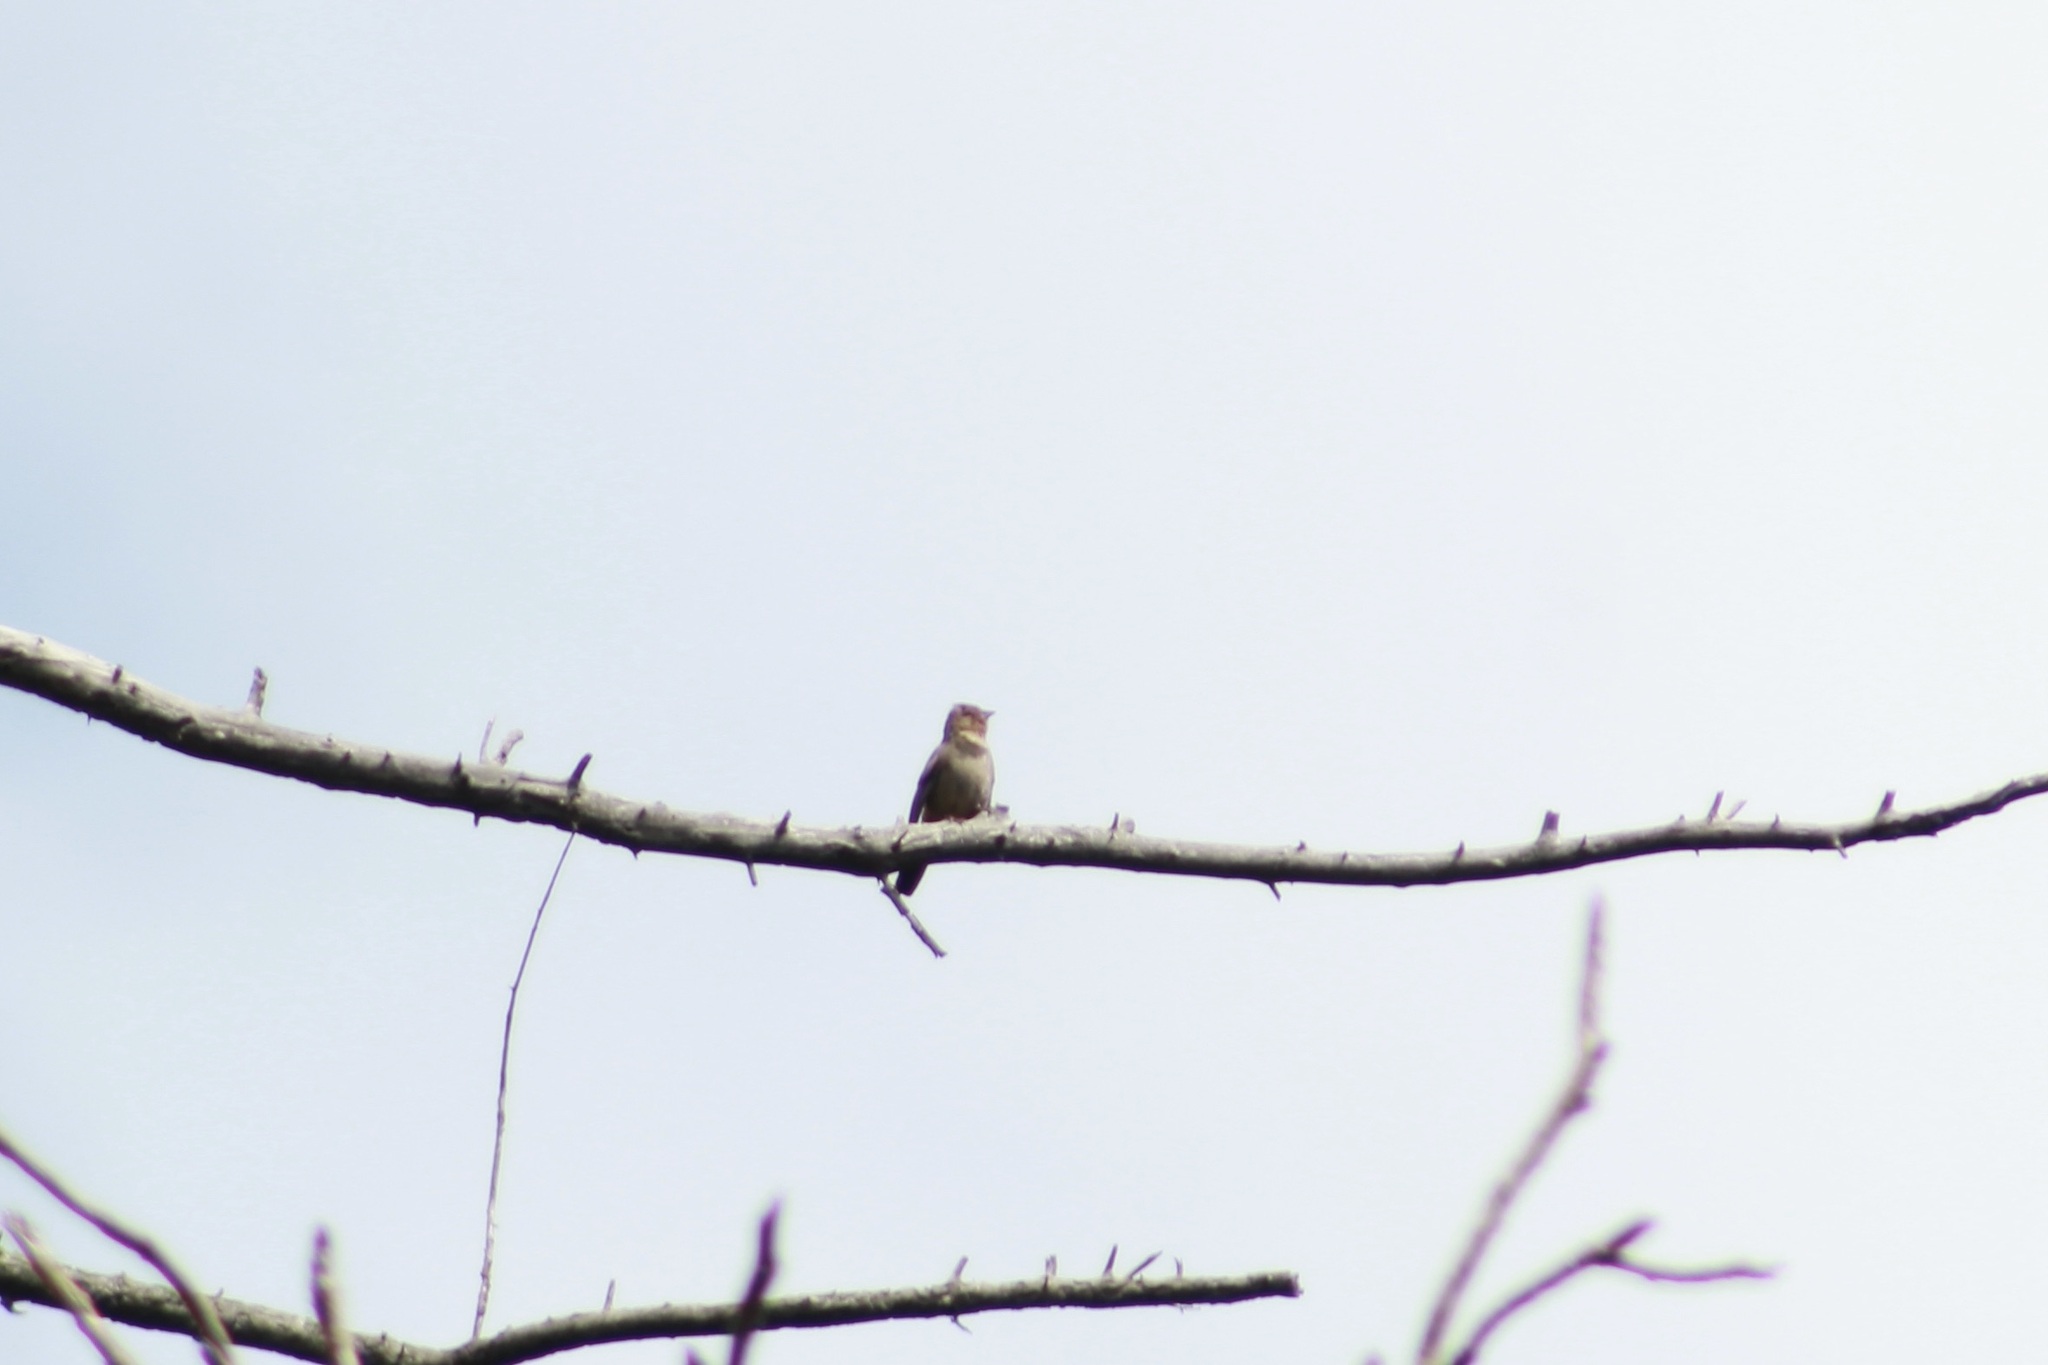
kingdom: Animalia
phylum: Chordata
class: Aves
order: Passeriformes
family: Passerellidae
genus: Melozone
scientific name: Melozone crissalis
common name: California towhee
